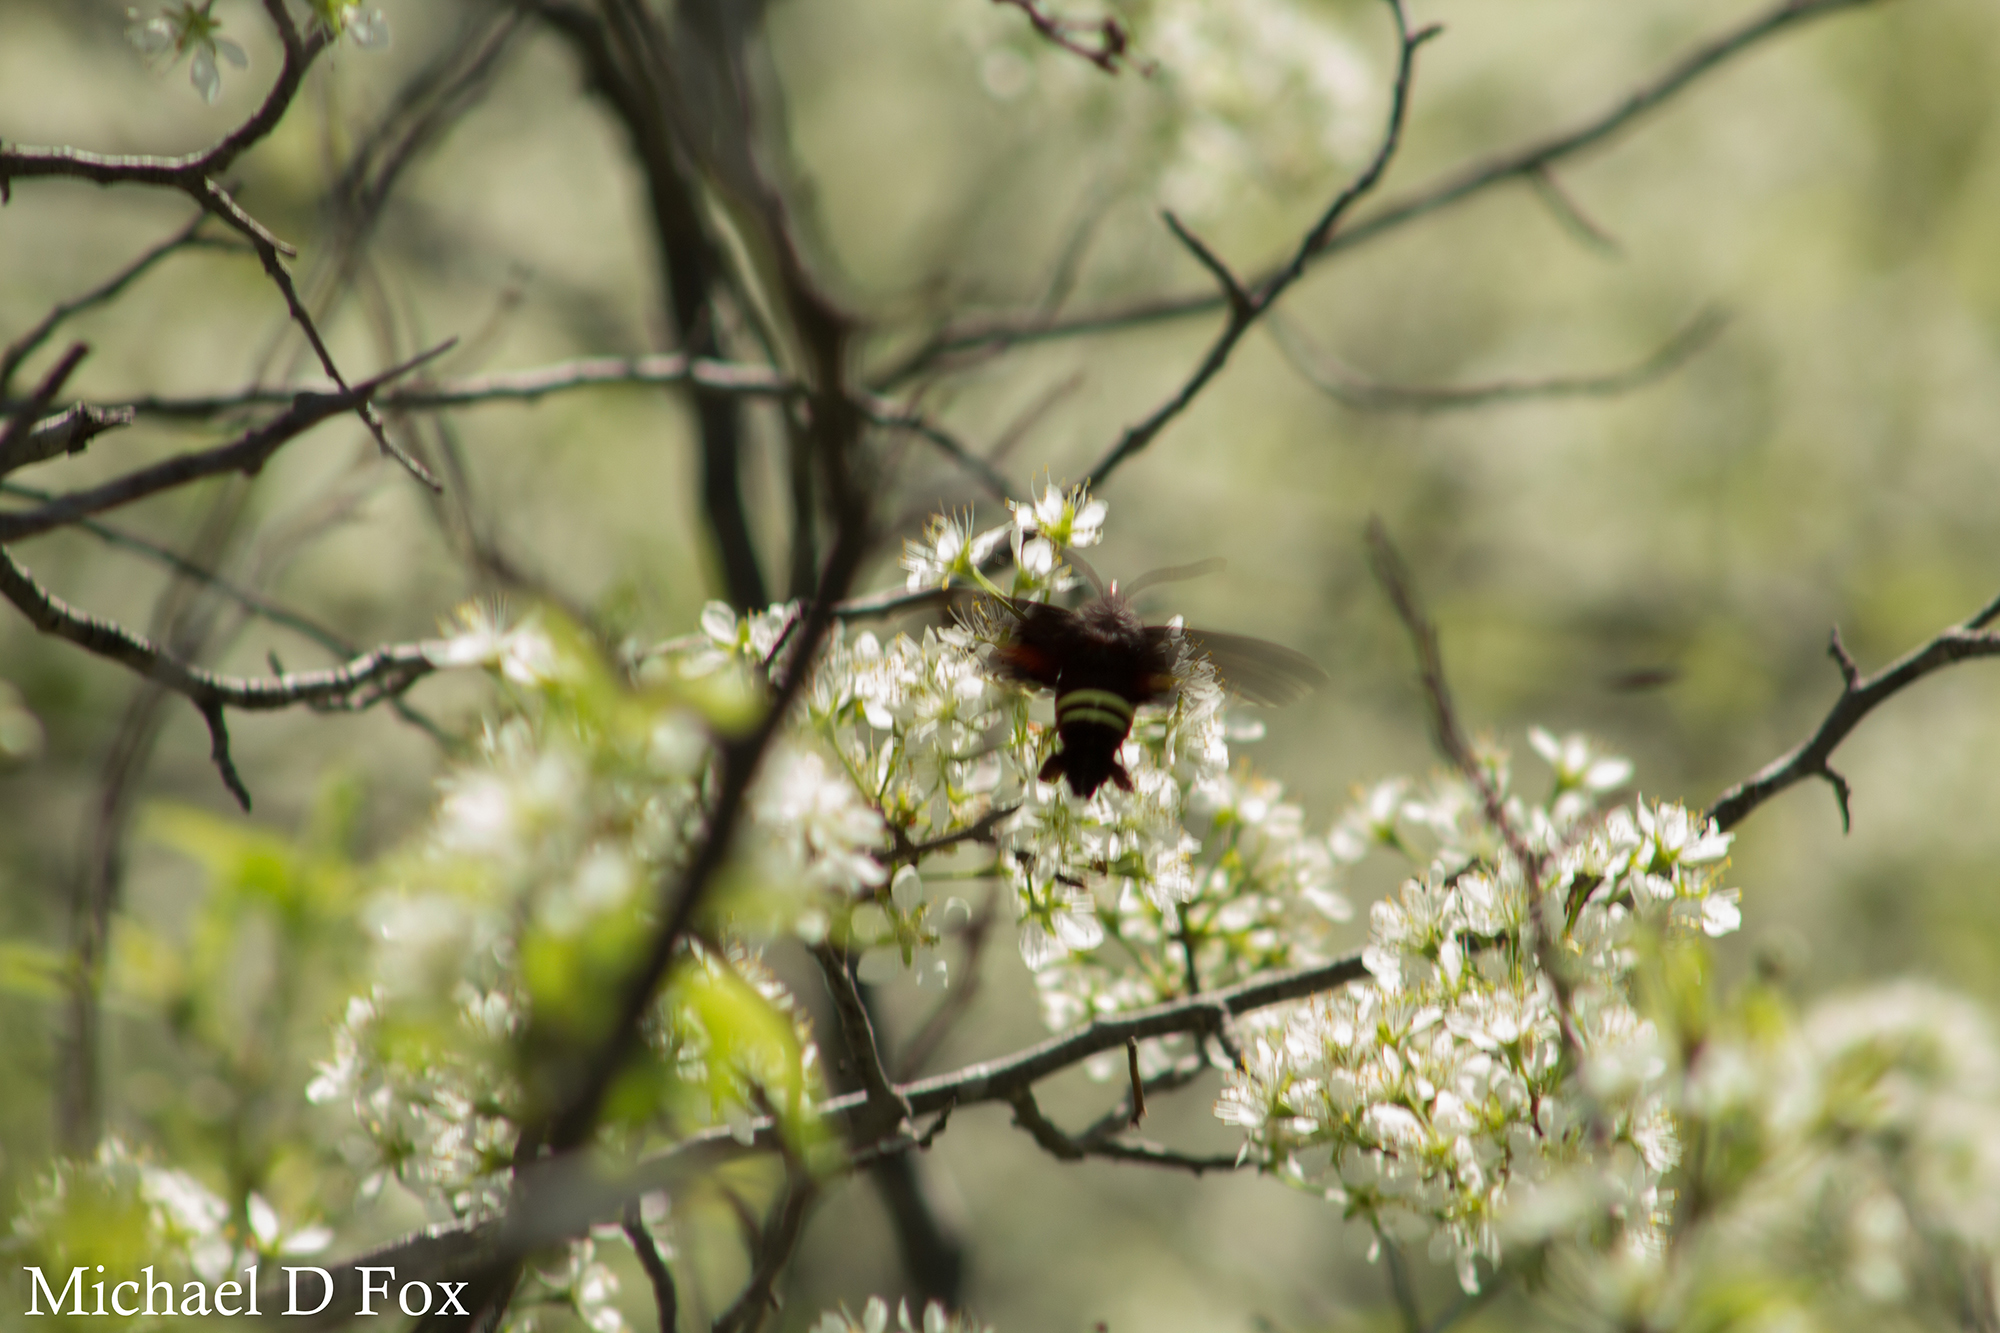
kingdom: Animalia
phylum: Arthropoda
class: Insecta
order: Lepidoptera
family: Sphingidae
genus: Amphion
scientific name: Amphion floridensis
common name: Nessus sphinx
